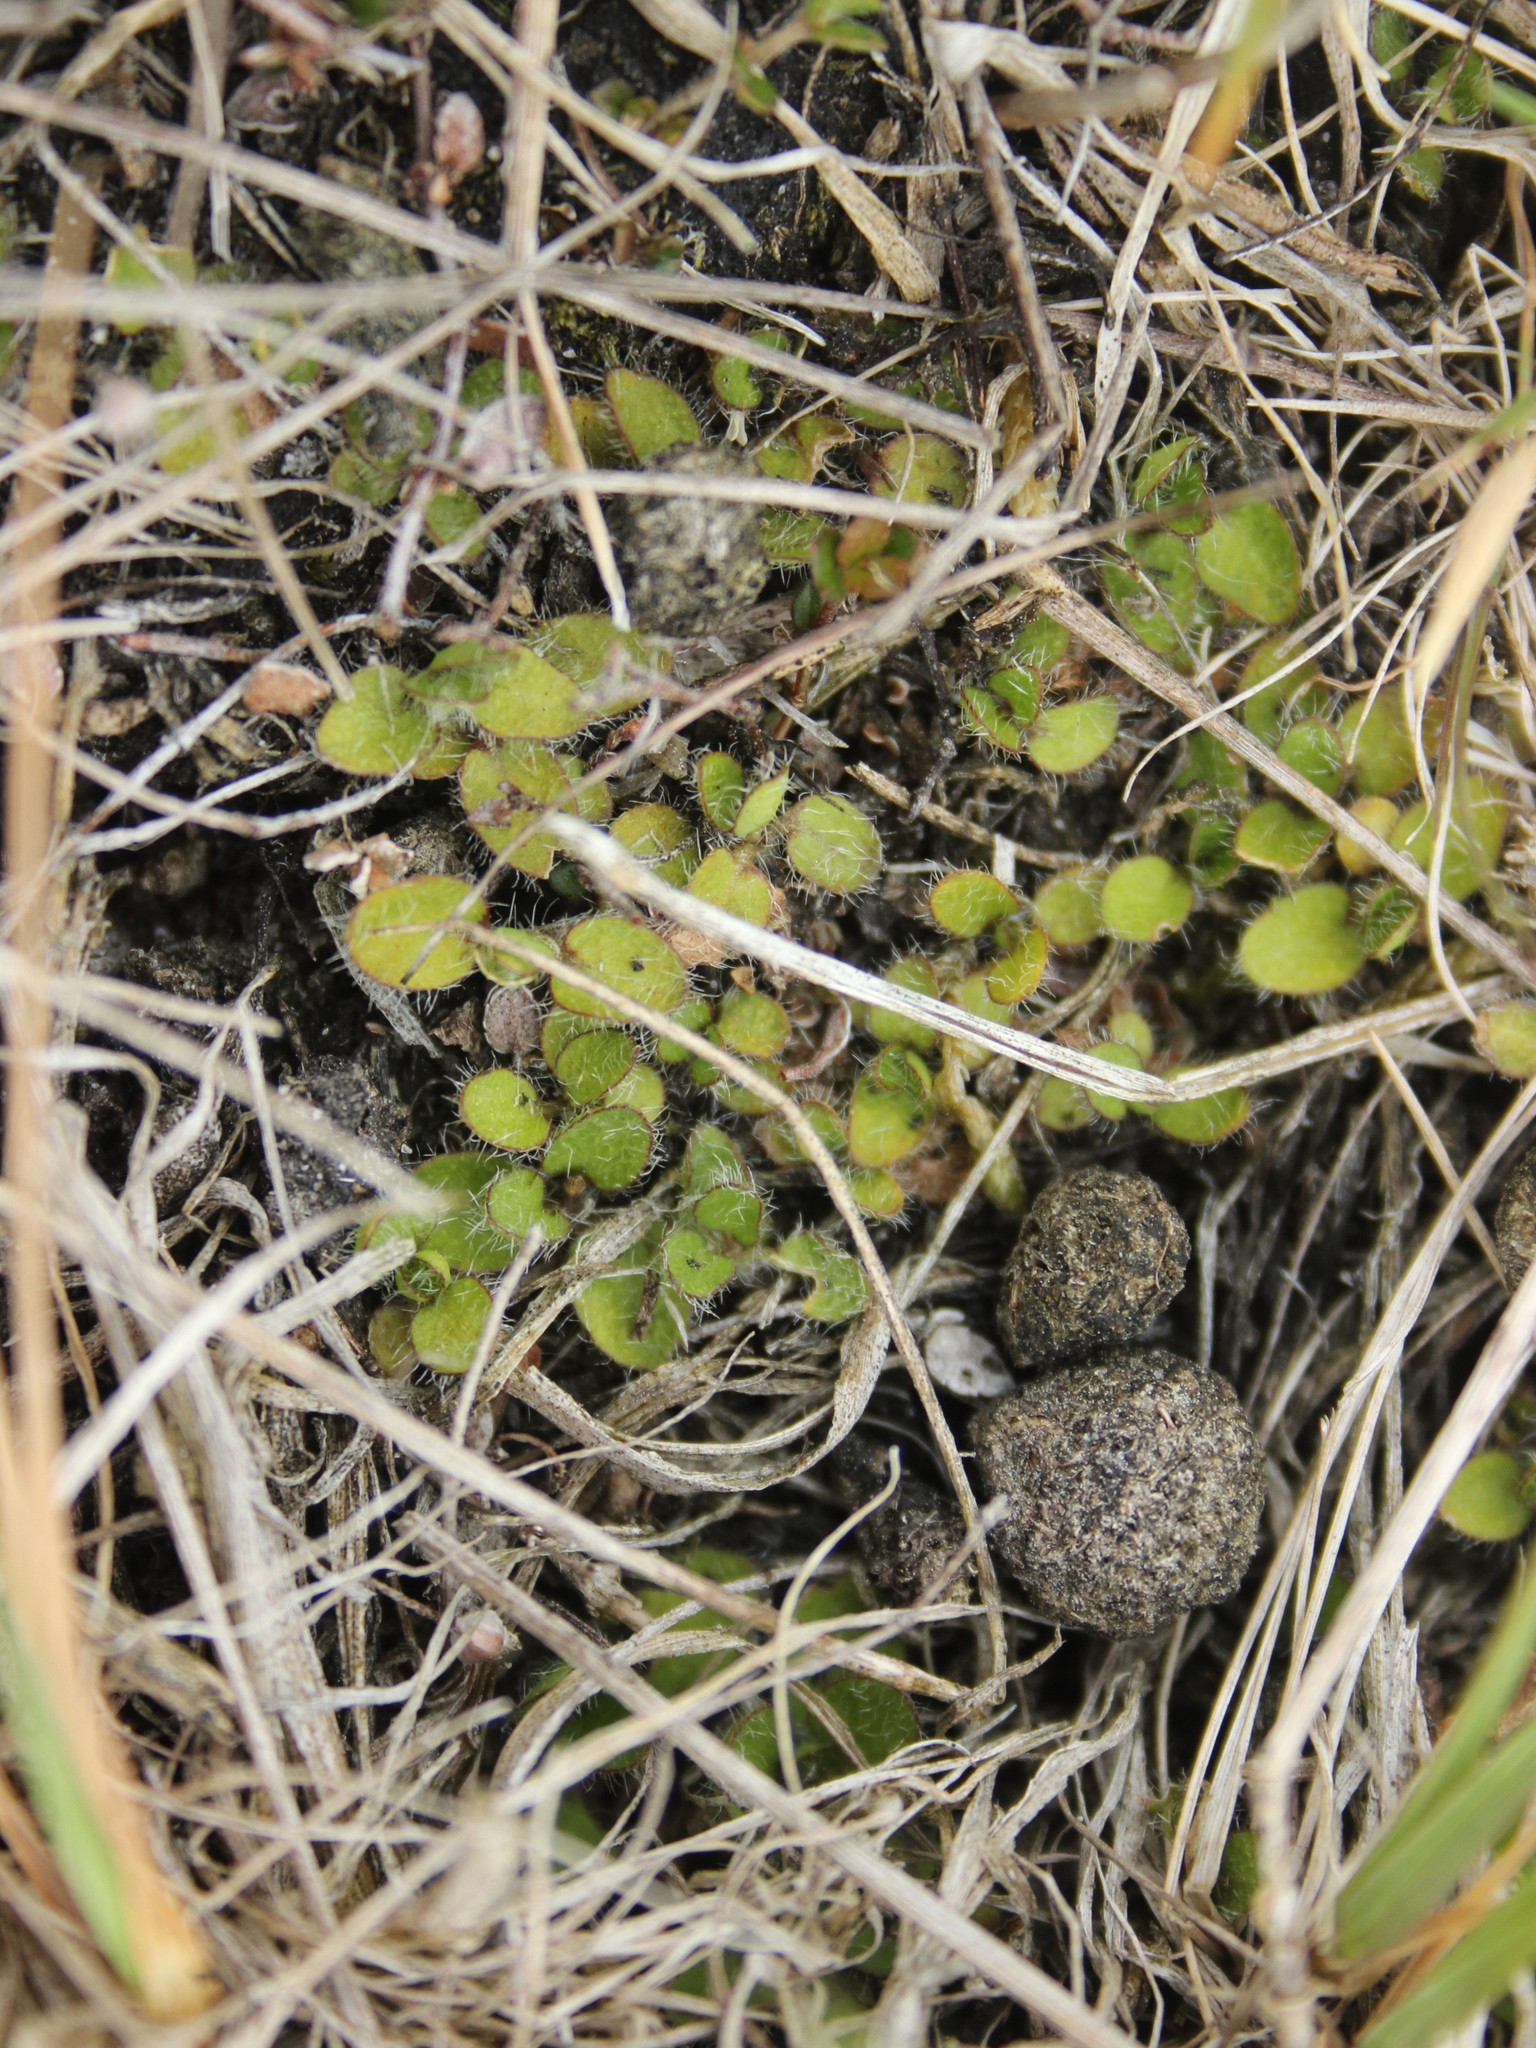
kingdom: Plantae
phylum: Tracheophyta
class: Magnoliopsida
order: Gentianales
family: Rubiaceae
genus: Leptostigma
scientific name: Leptostigma setulosum
